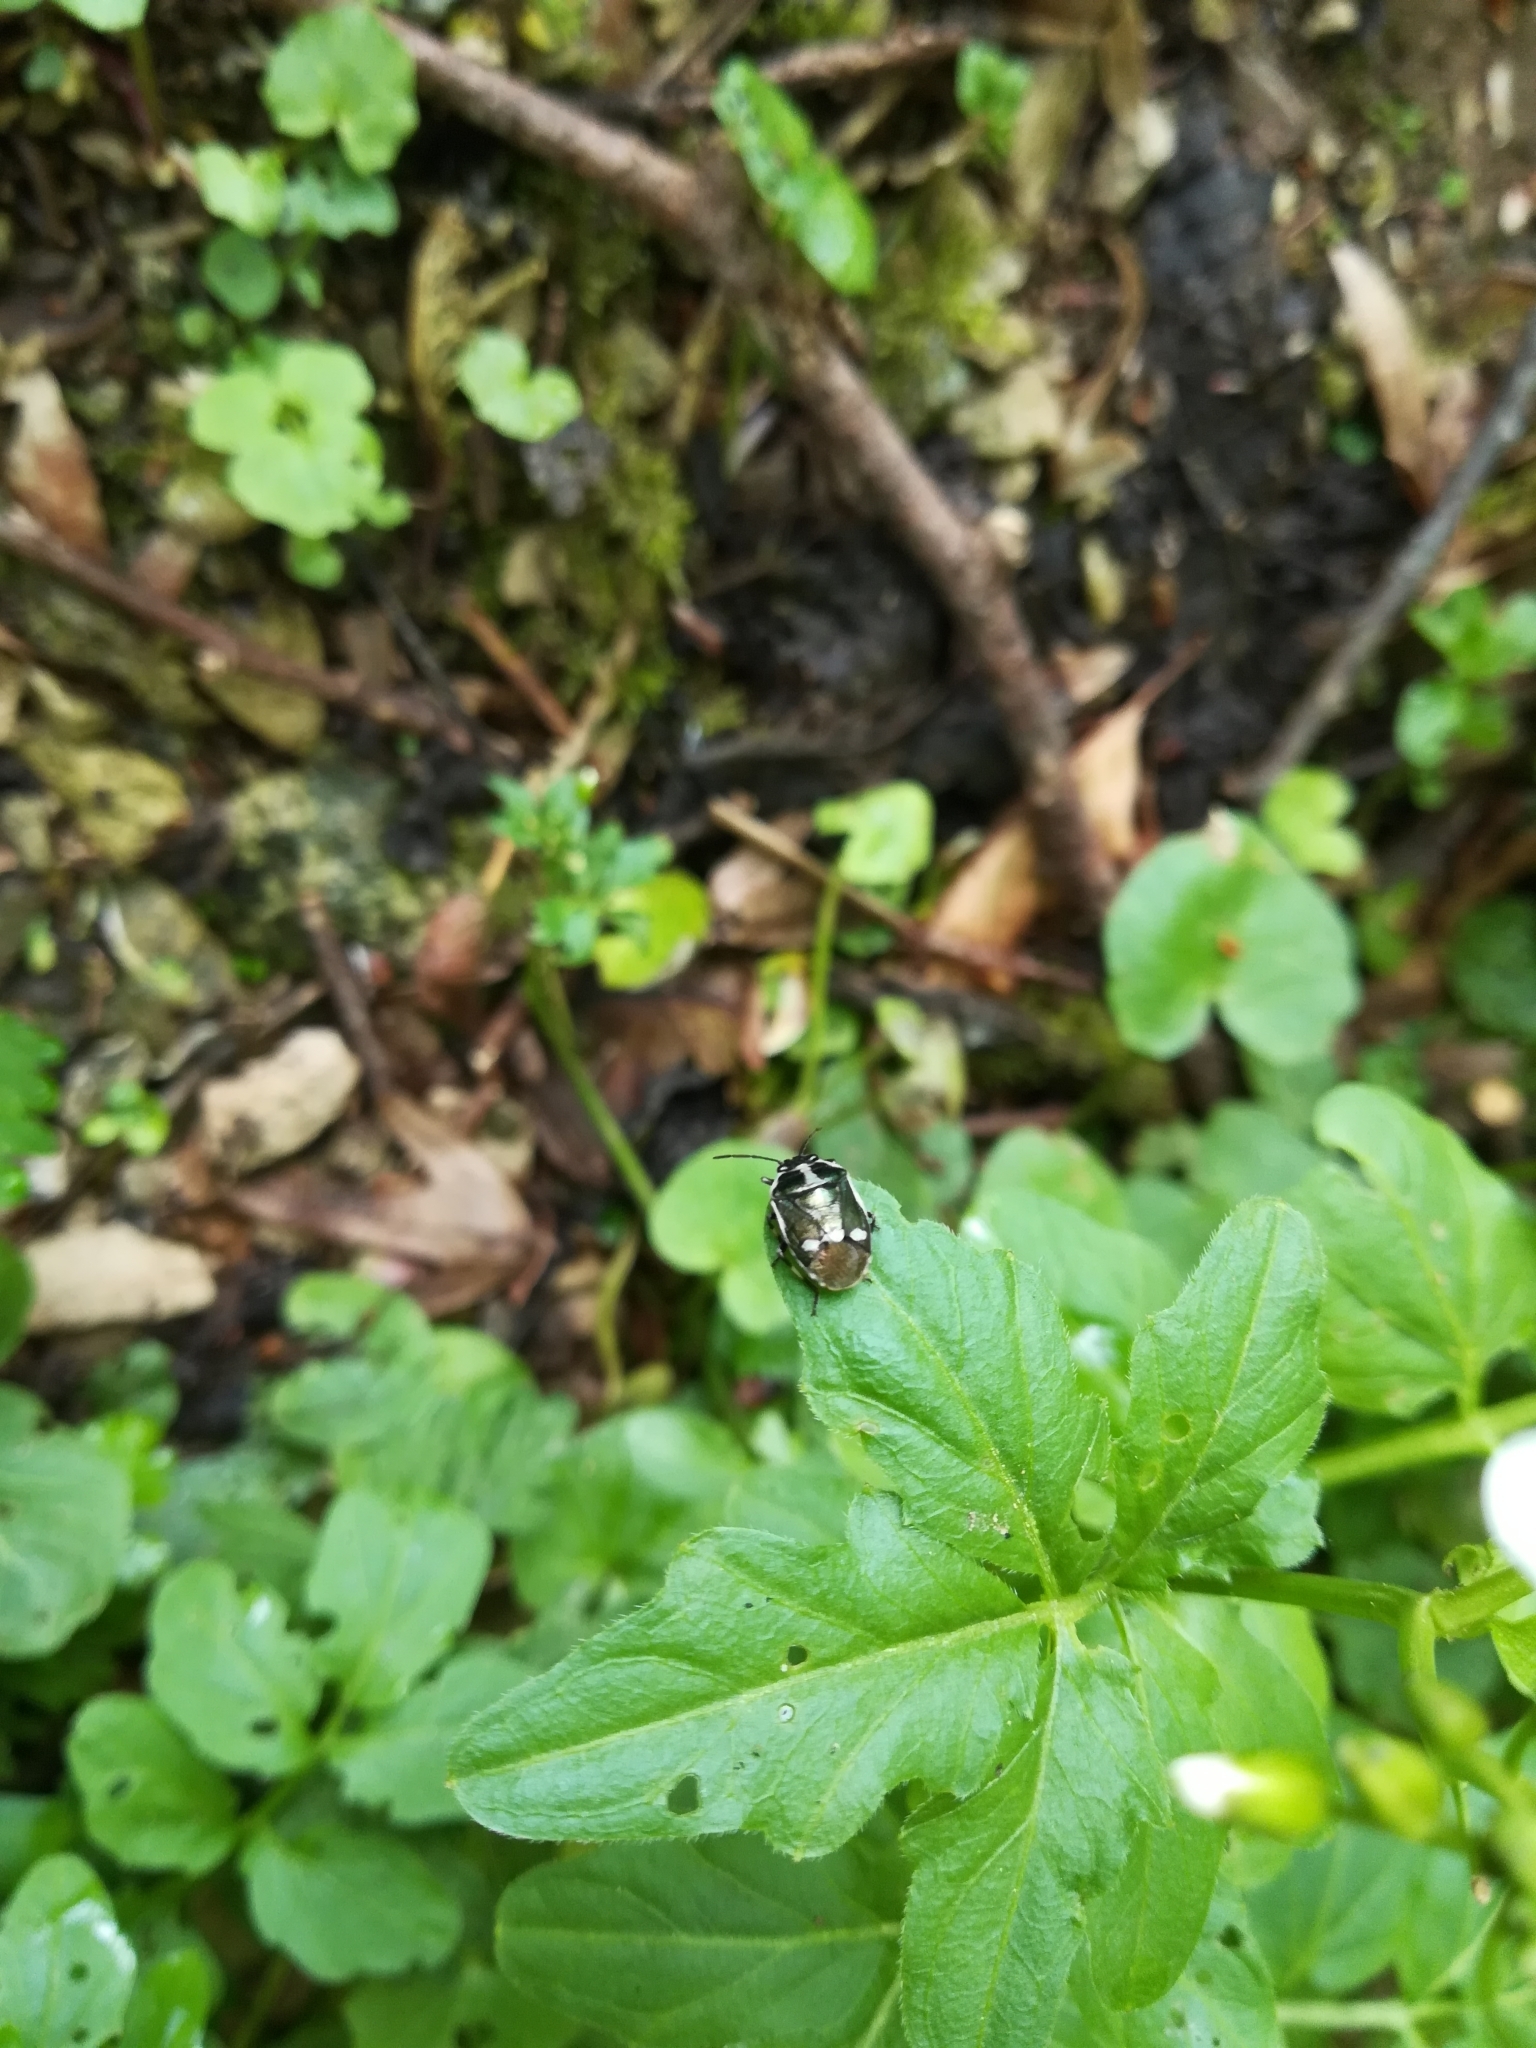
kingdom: Animalia
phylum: Arthropoda
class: Insecta
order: Hemiptera
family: Pentatomidae
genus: Eurydema
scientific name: Eurydema oleracea
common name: Cabbage bug
